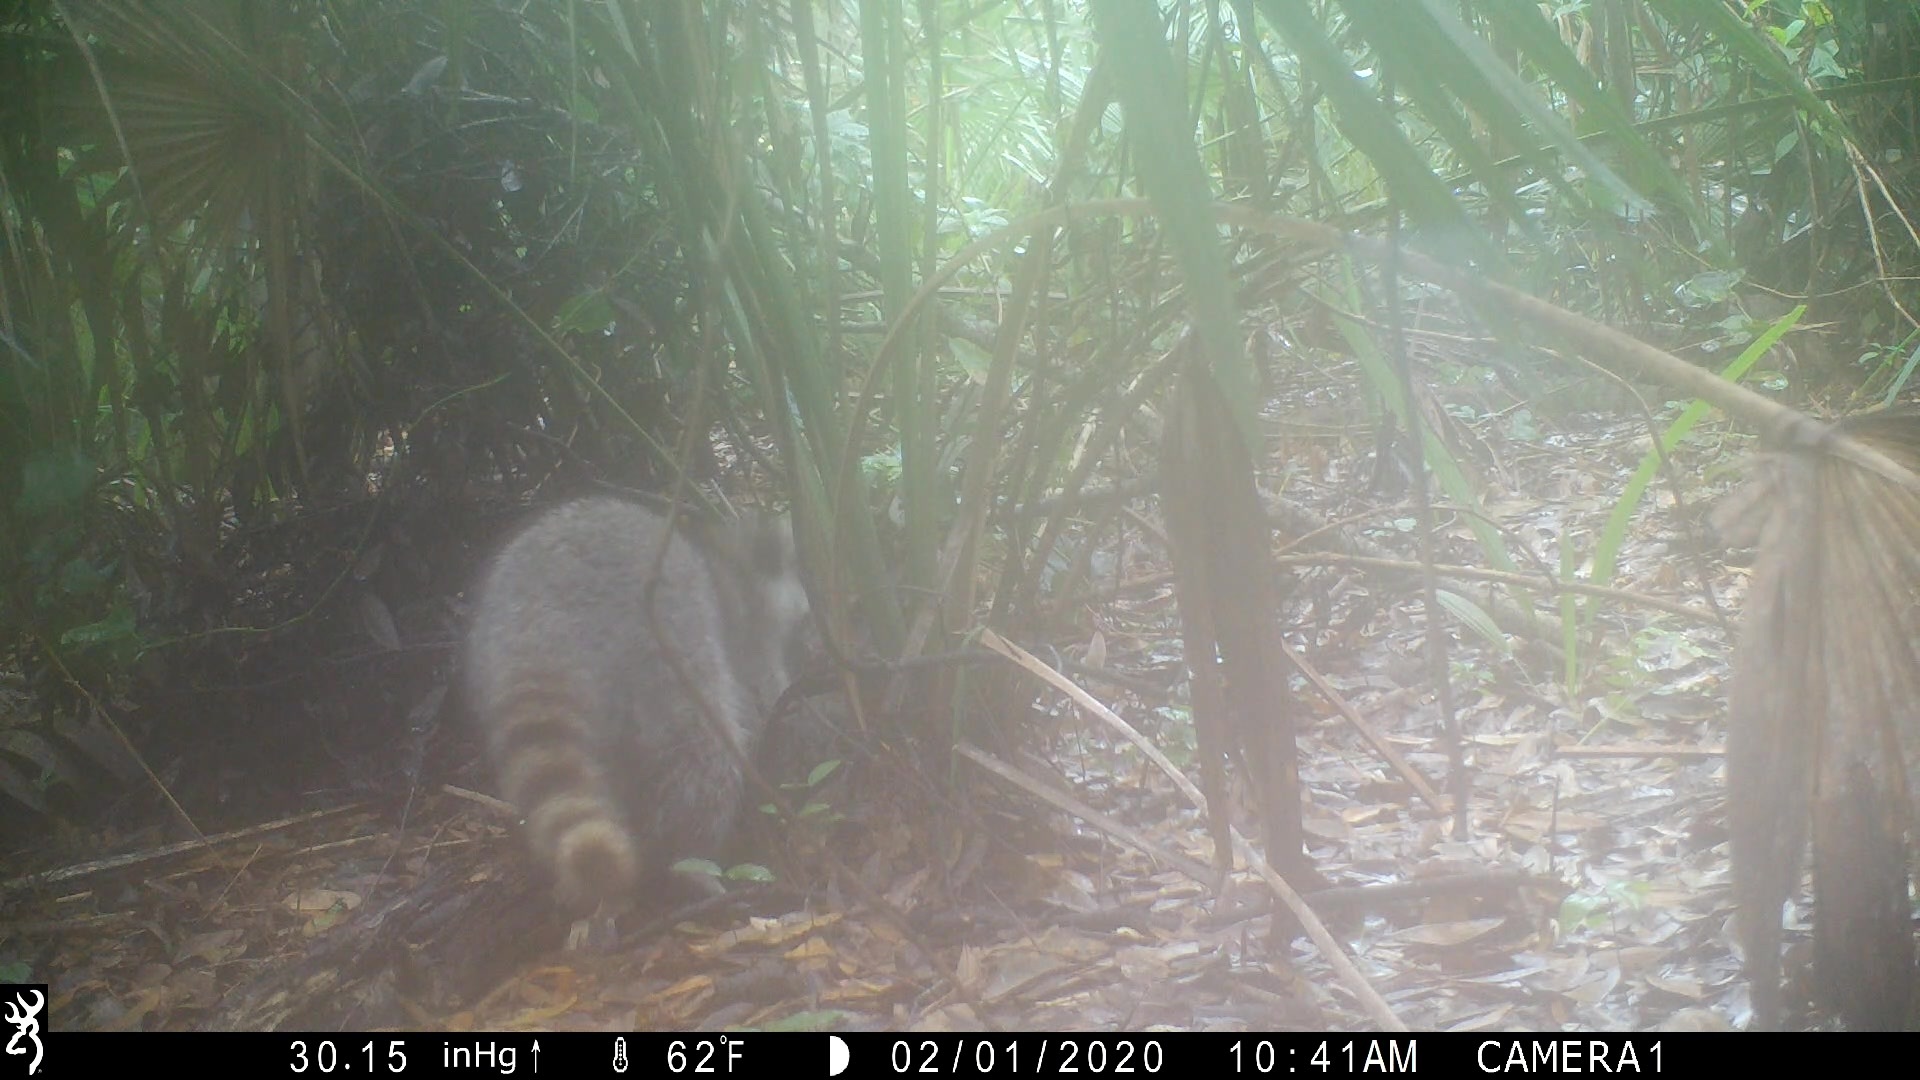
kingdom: Animalia
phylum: Chordata
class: Mammalia
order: Carnivora
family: Procyonidae
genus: Procyon
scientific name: Procyon lotor
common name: Raccoon
